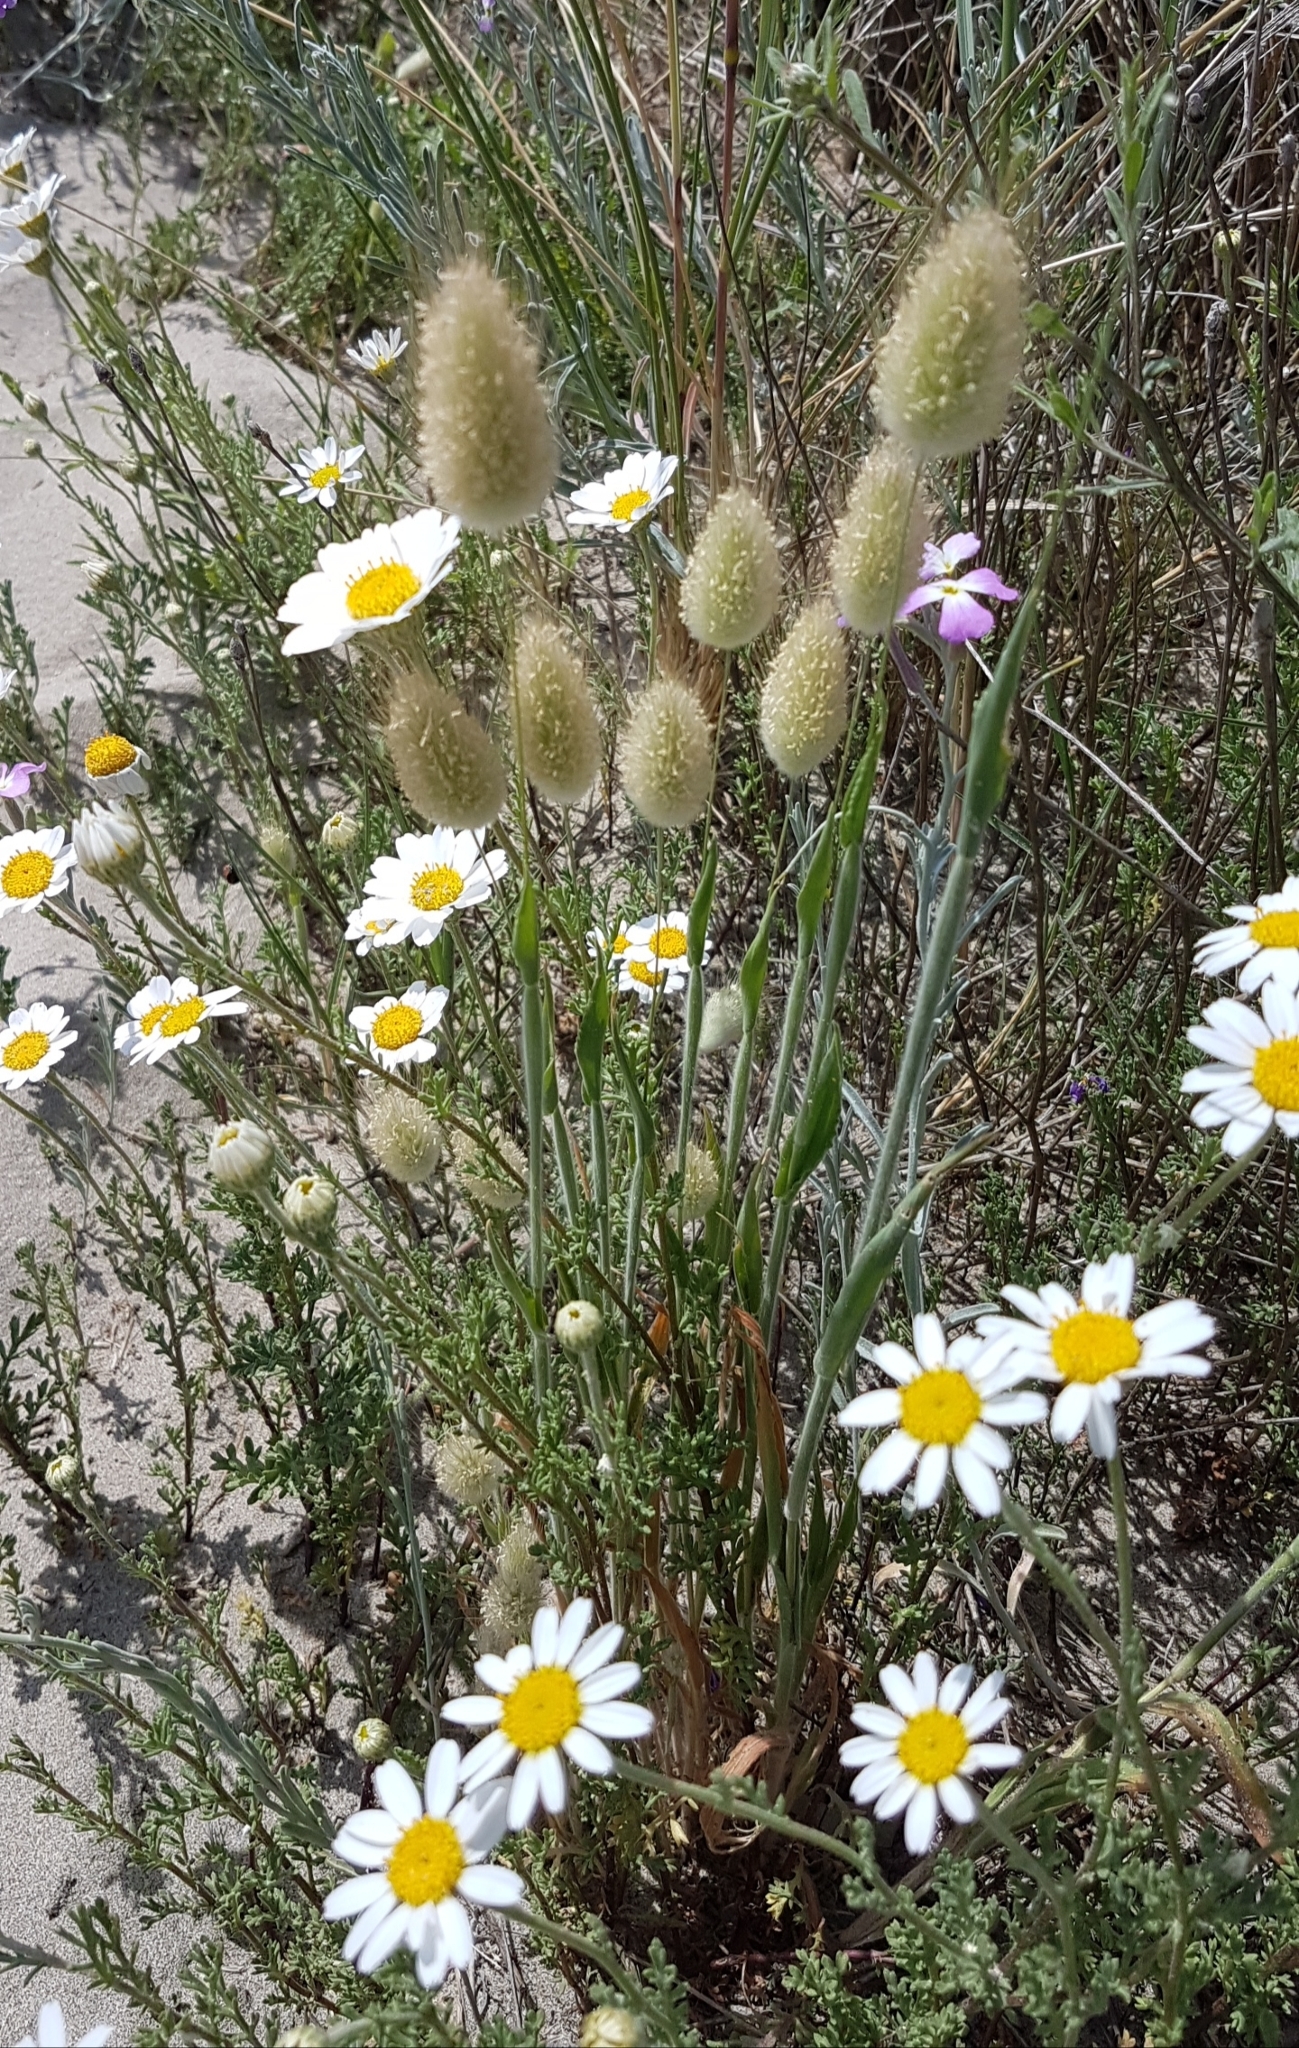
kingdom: Plantae
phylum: Tracheophyta
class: Liliopsida
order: Poales
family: Poaceae
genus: Lagurus
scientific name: Lagurus ovatus
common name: Hare's-tail
